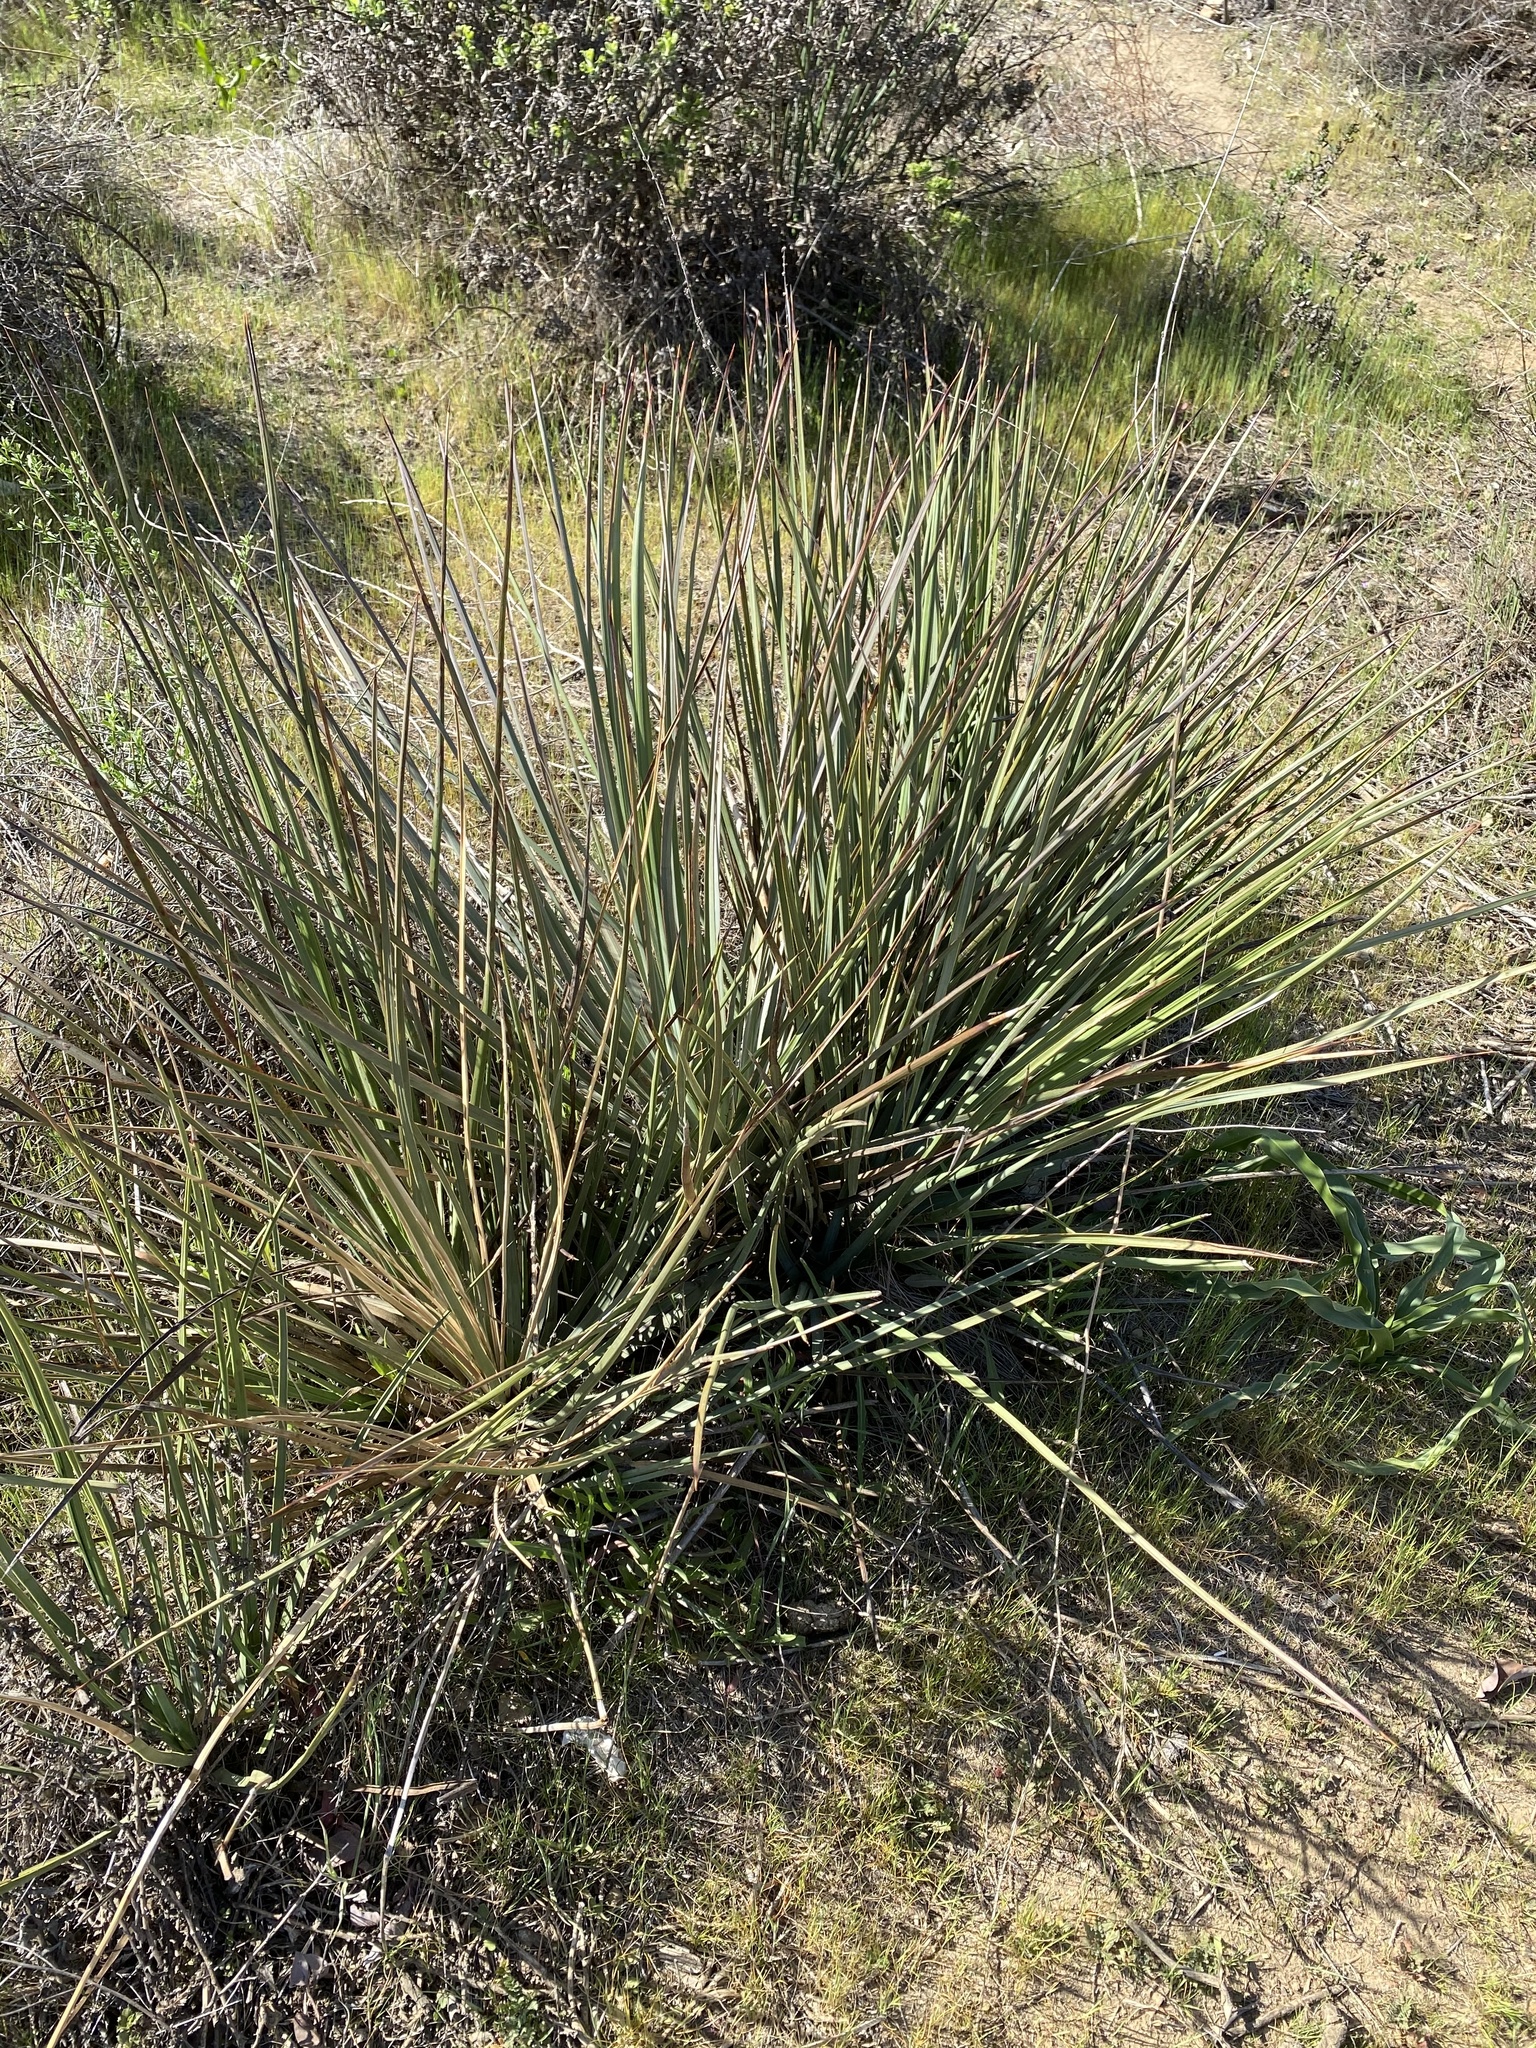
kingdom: Plantae
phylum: Tracheophyta
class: Liliopsida
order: Asparagales
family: Asparagaceae
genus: Hesperoyucca
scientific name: Hesperoyucca whipplei
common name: Our lord's-candle
